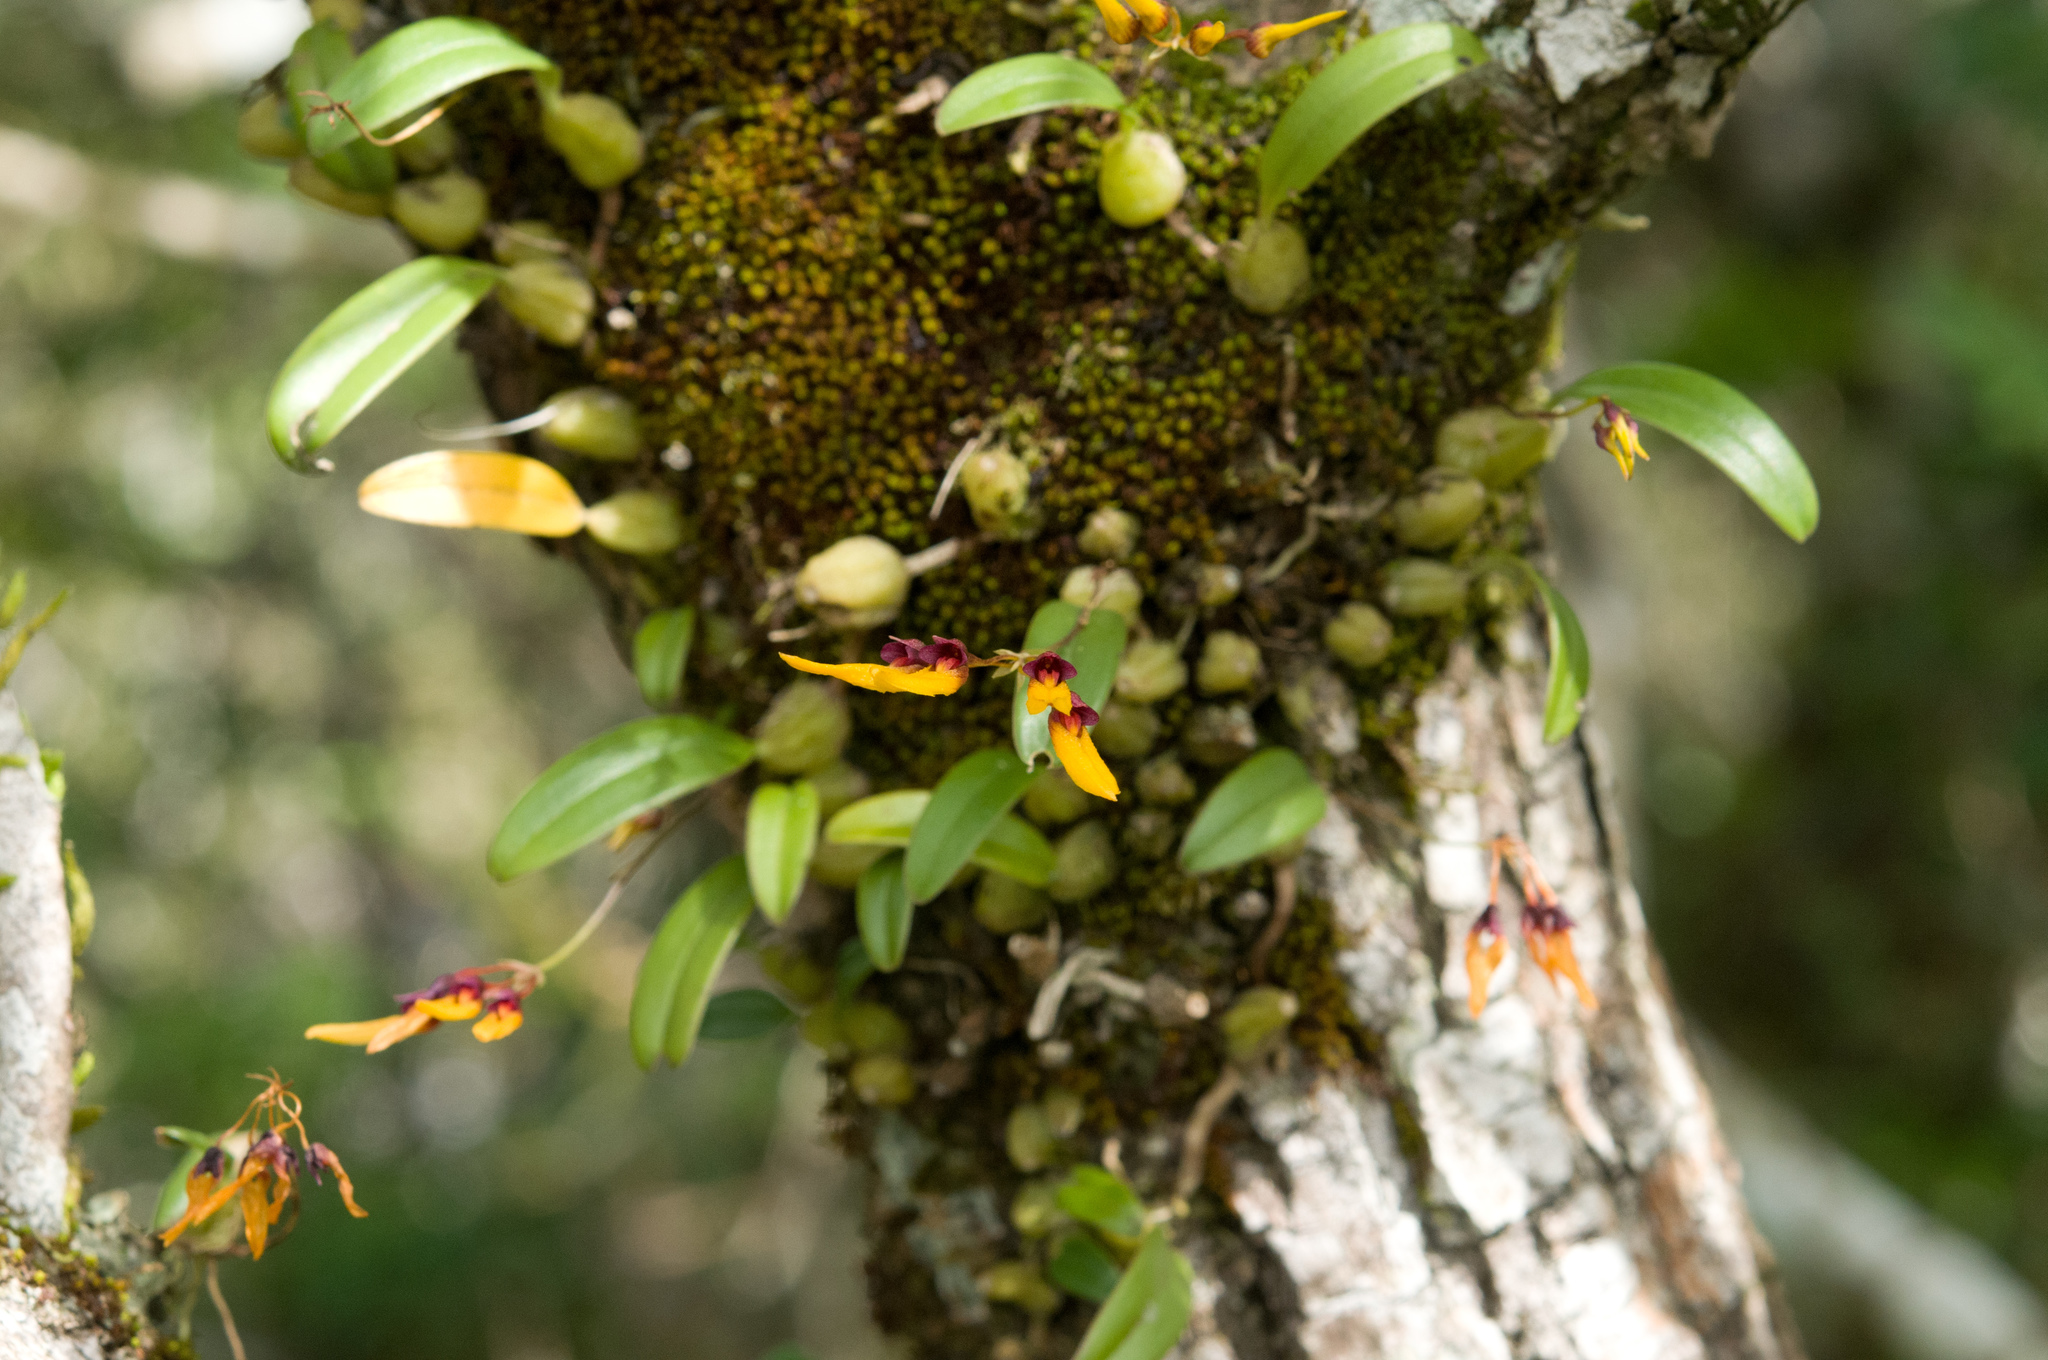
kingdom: Plantae
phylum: Tracheophyta
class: Liliopsida
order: Asparagales
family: Orchidaceae
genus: Bulbophyllum
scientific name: Bulbophyllum retusiusculum
